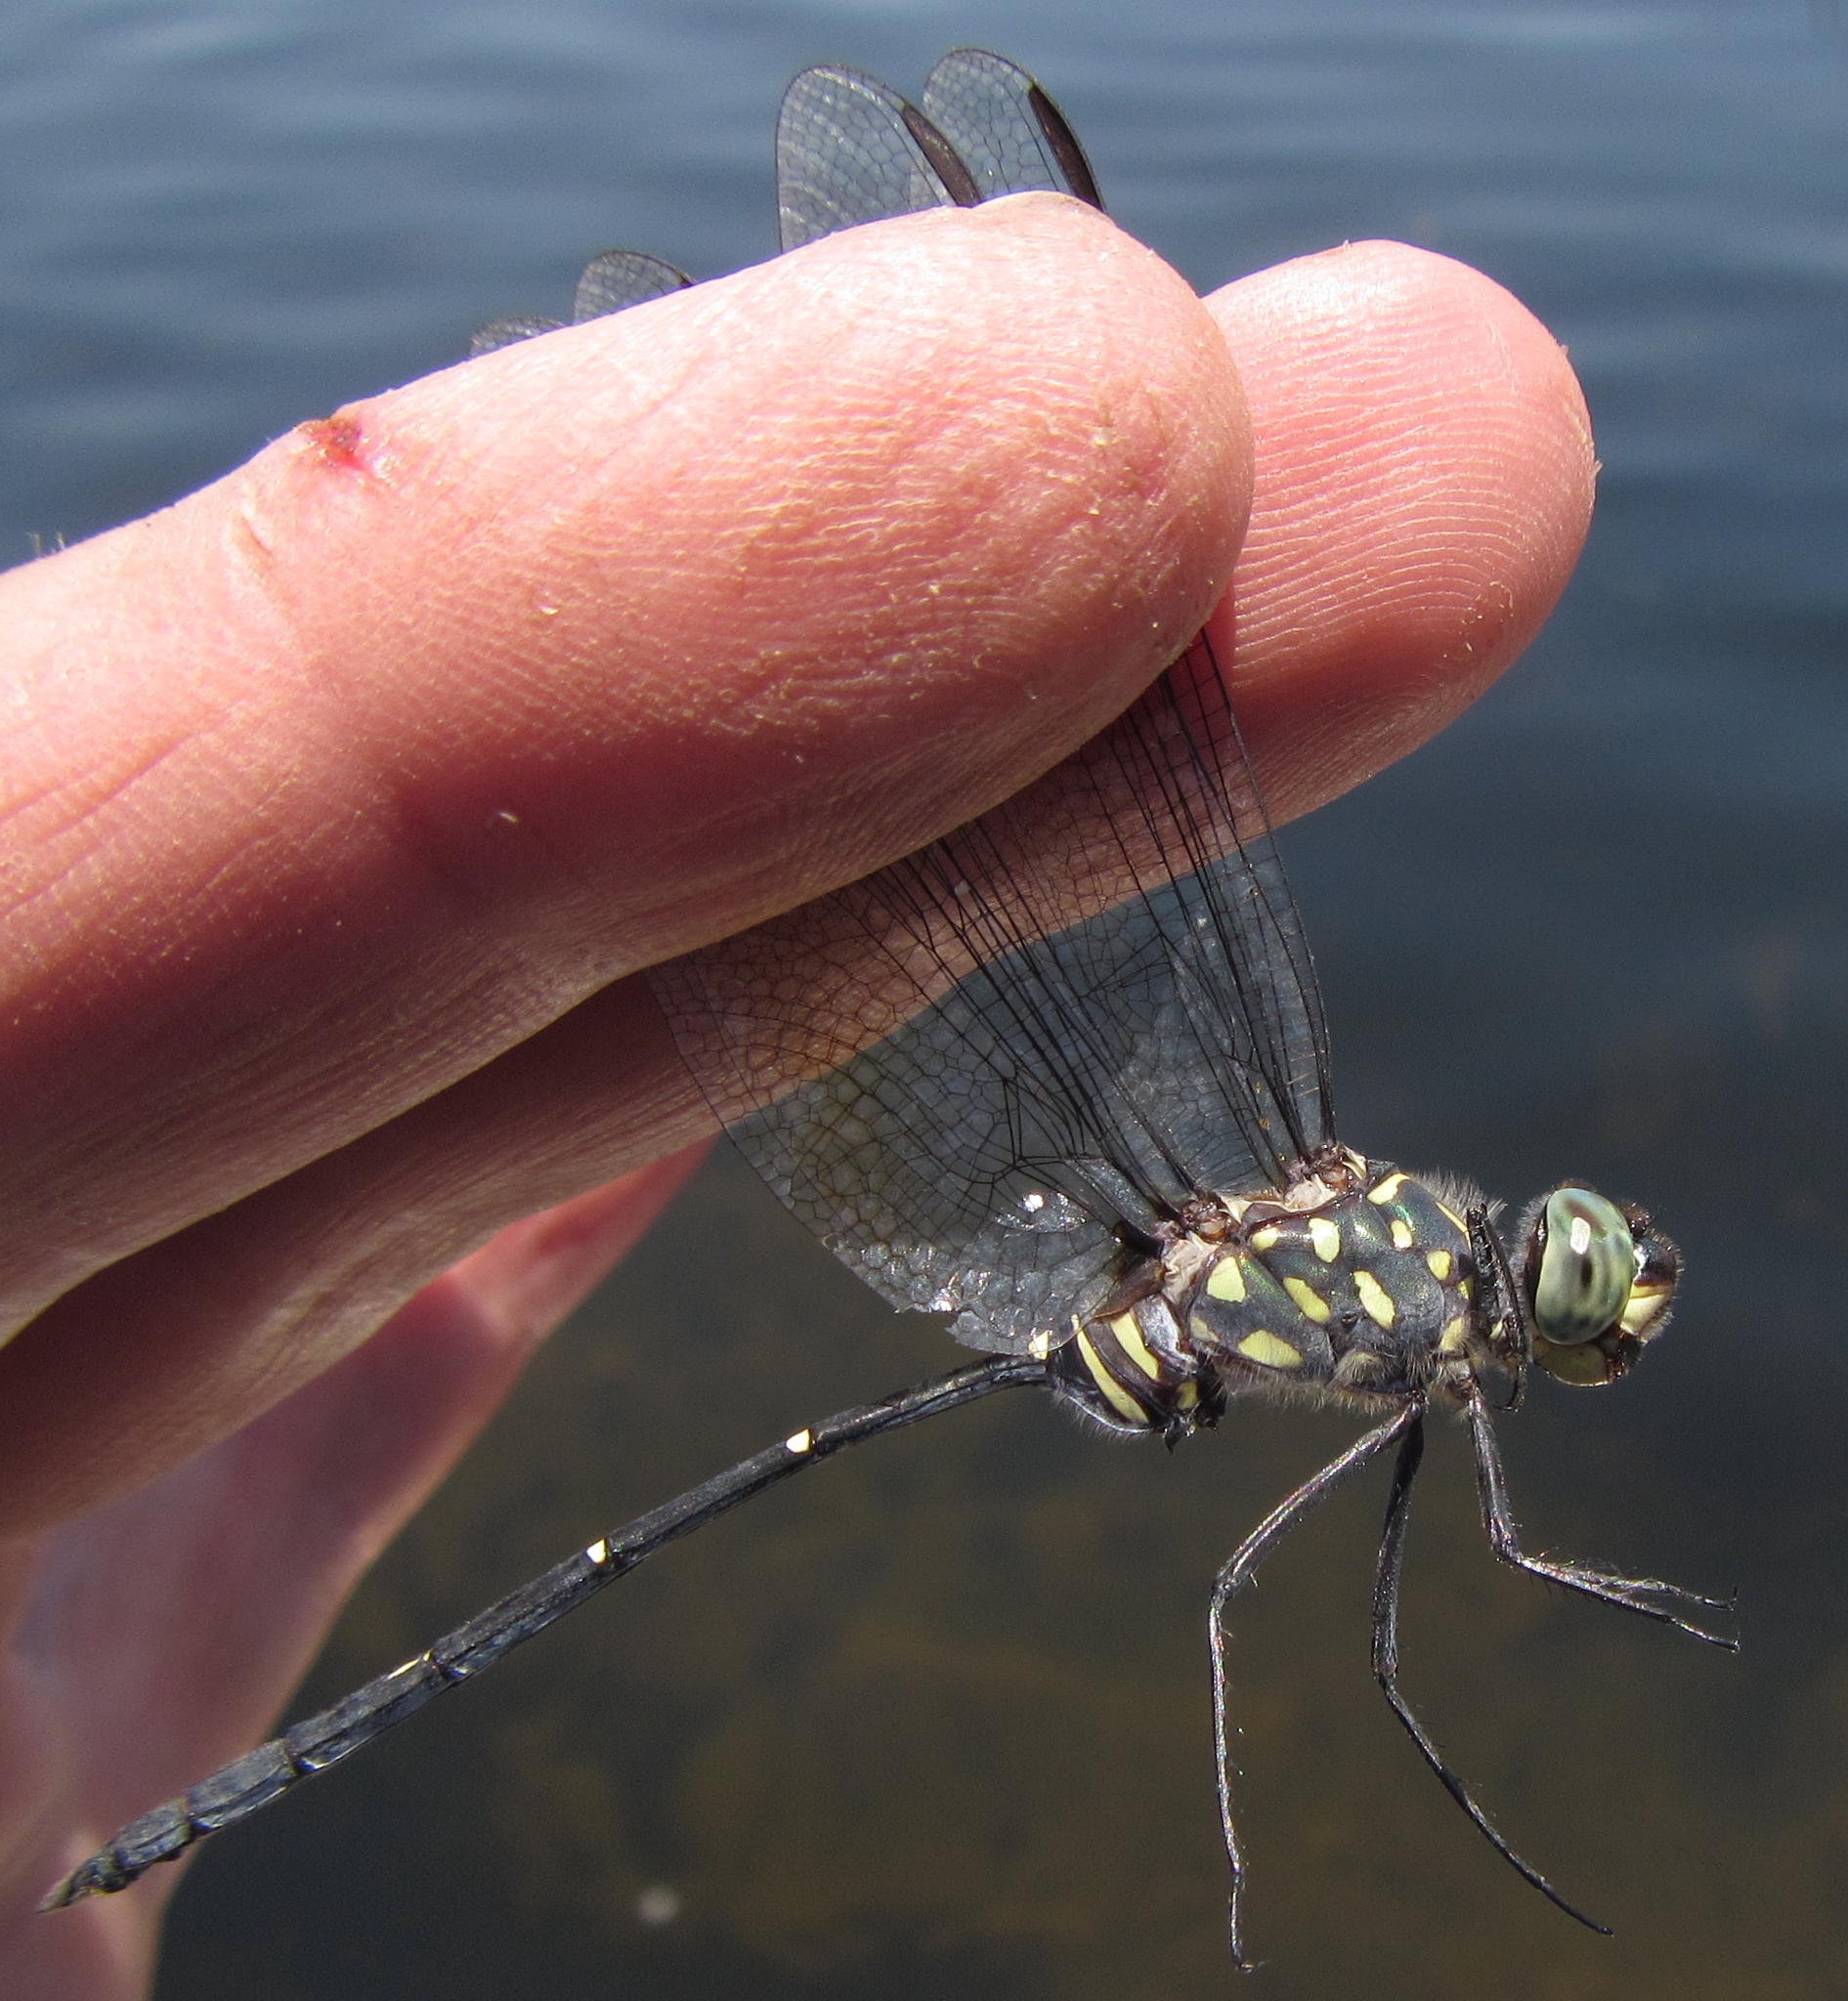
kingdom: Animalia
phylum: Arthropoda
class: Insecta
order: Odonata
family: Libellulidae
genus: Olpogastra
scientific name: Olpogastra lugubris
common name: Bottletail
